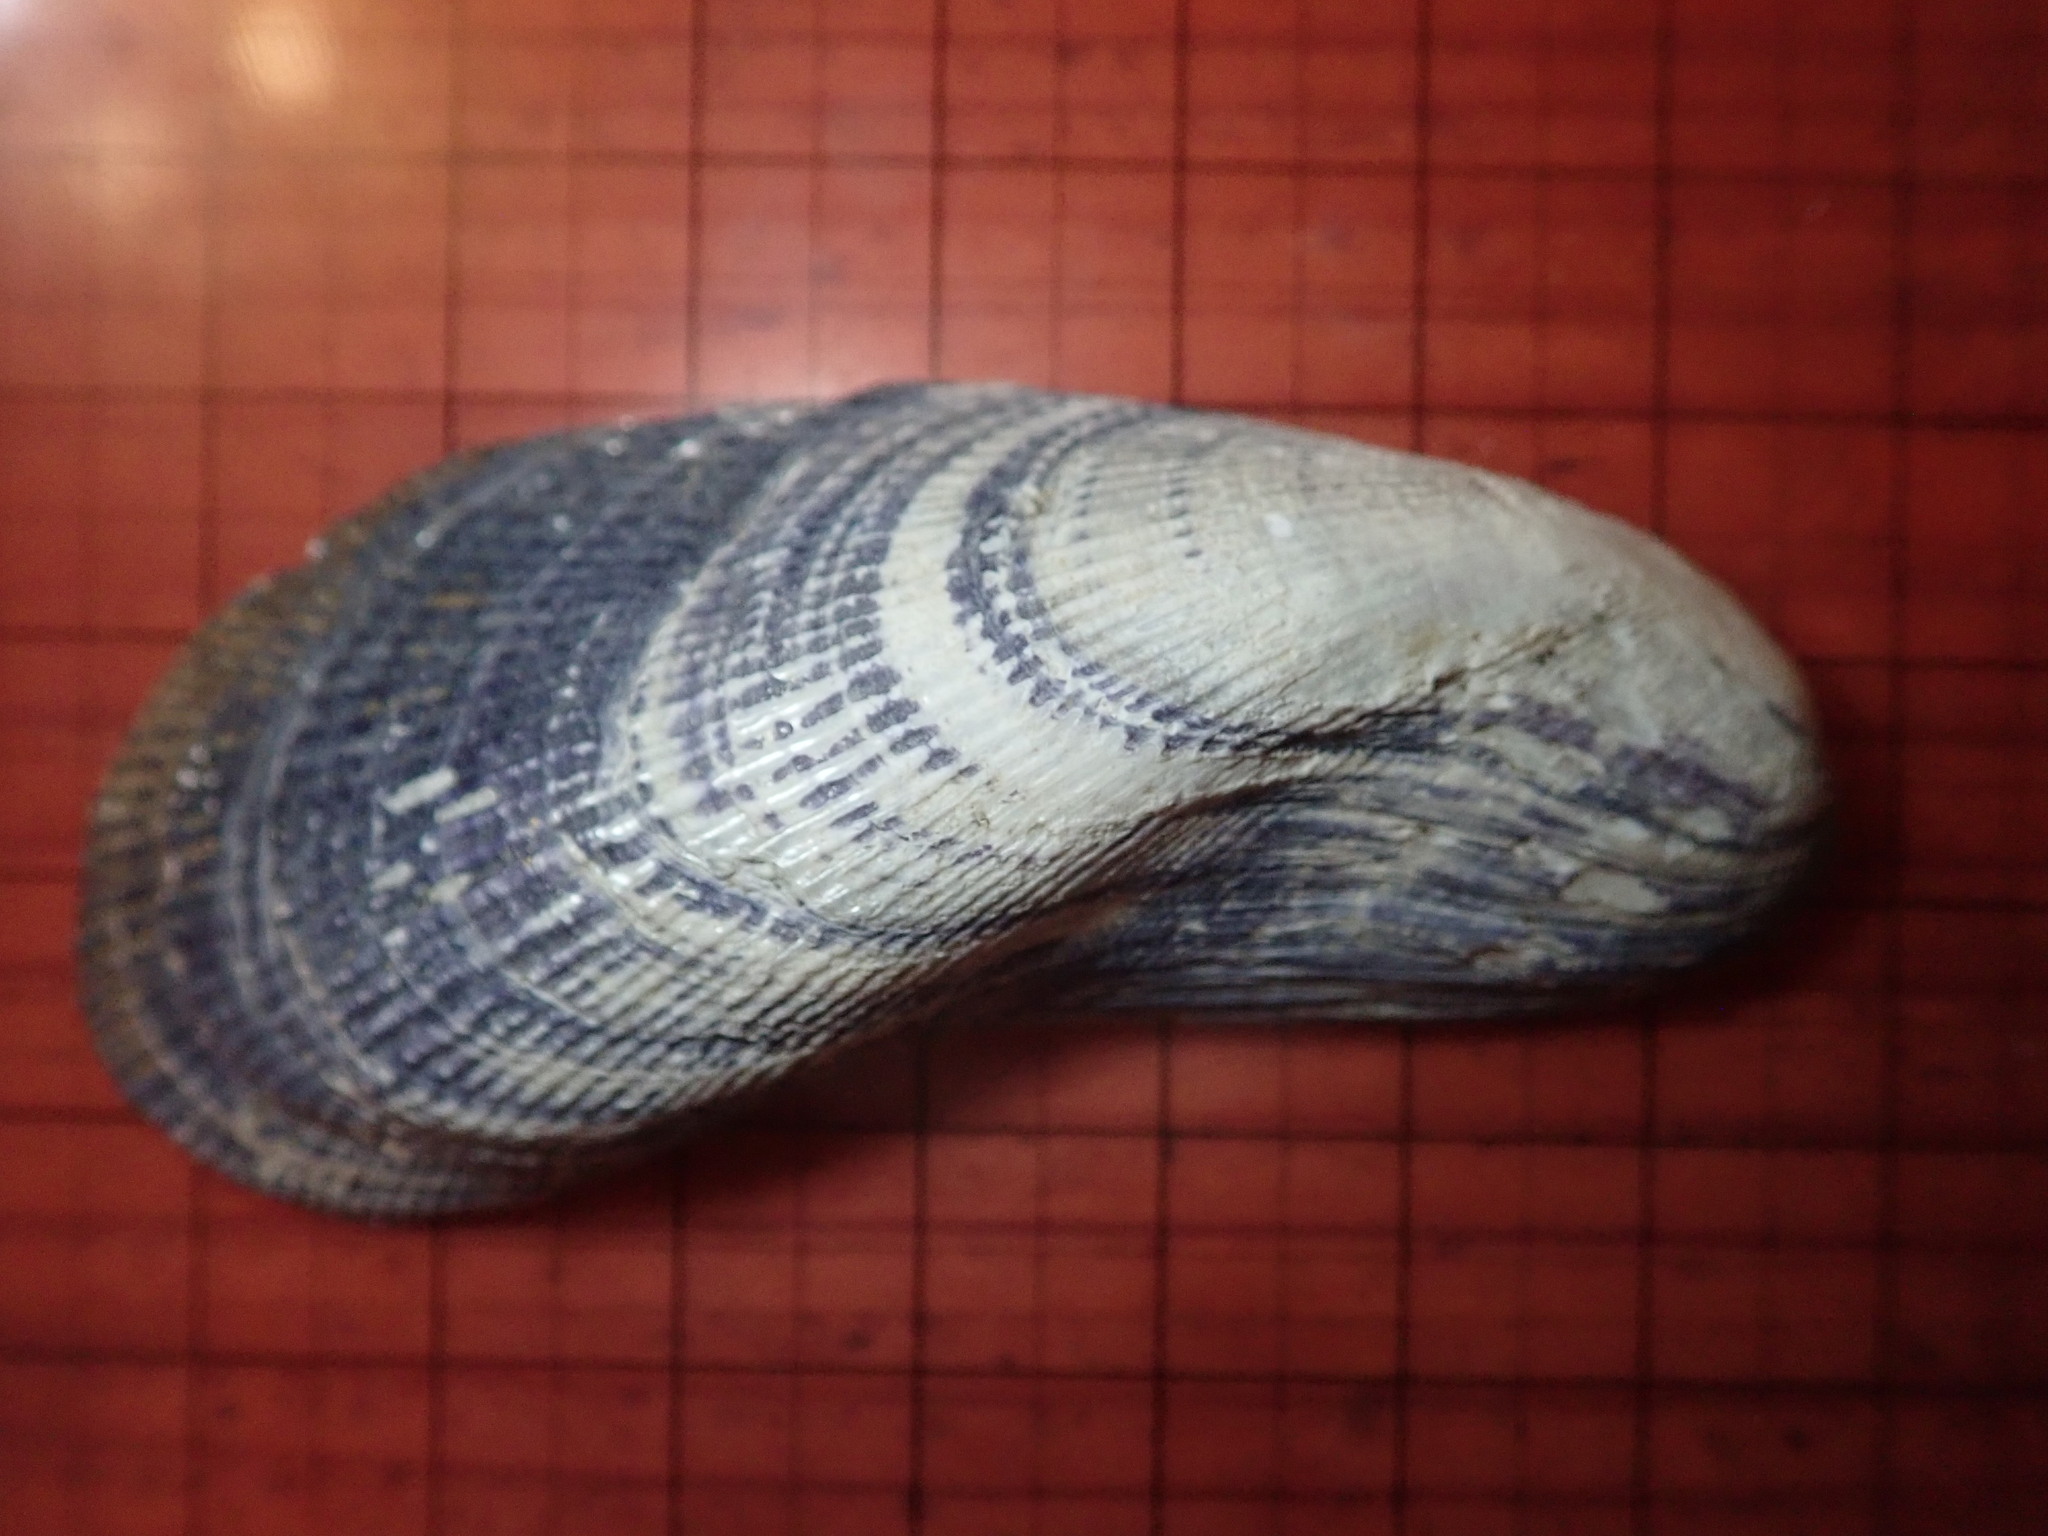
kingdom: Animalia
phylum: Mollusca
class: Bivalvia
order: Mytilida
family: Mytilidae
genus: Geukensia
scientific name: Geukensia demissa
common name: Ribbed mussel
